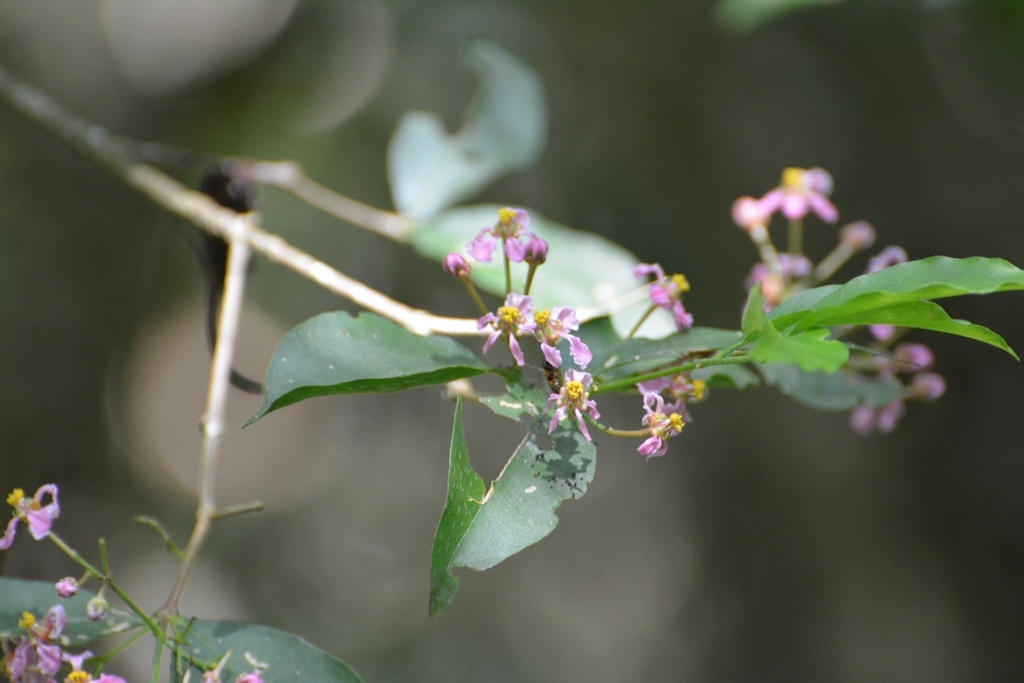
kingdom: Plantae
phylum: Tracheophyta
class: Magnoliopsida
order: Malpighiales
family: Malpighiaceae
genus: Malpighia
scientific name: Malpighia glabra
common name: Barbados cherry
